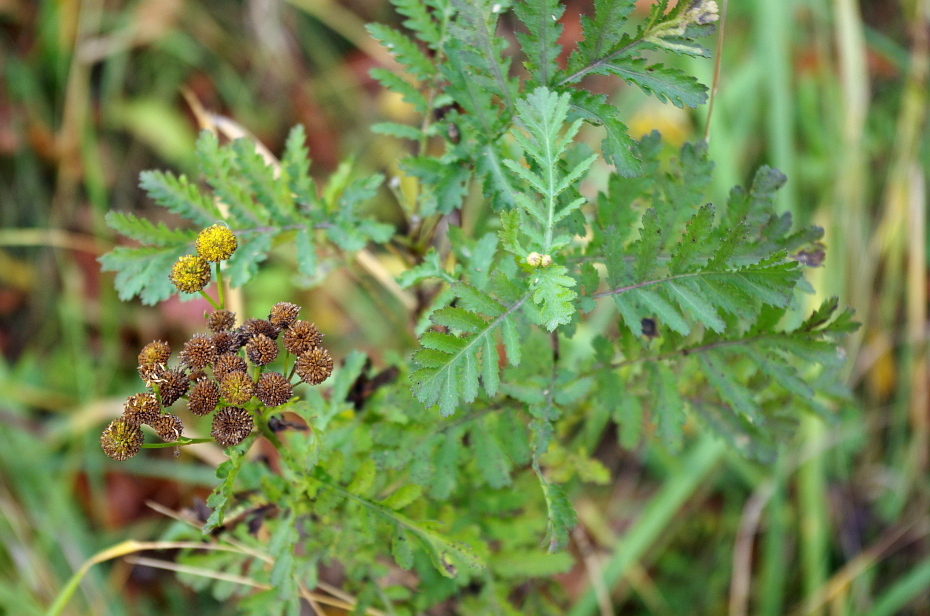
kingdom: Plantae
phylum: Tracheophyta
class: Magnoliopsida
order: Asterales
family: Asteraceae
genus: Tanacetum
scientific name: Tanacetum vulgare
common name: Common tansy
